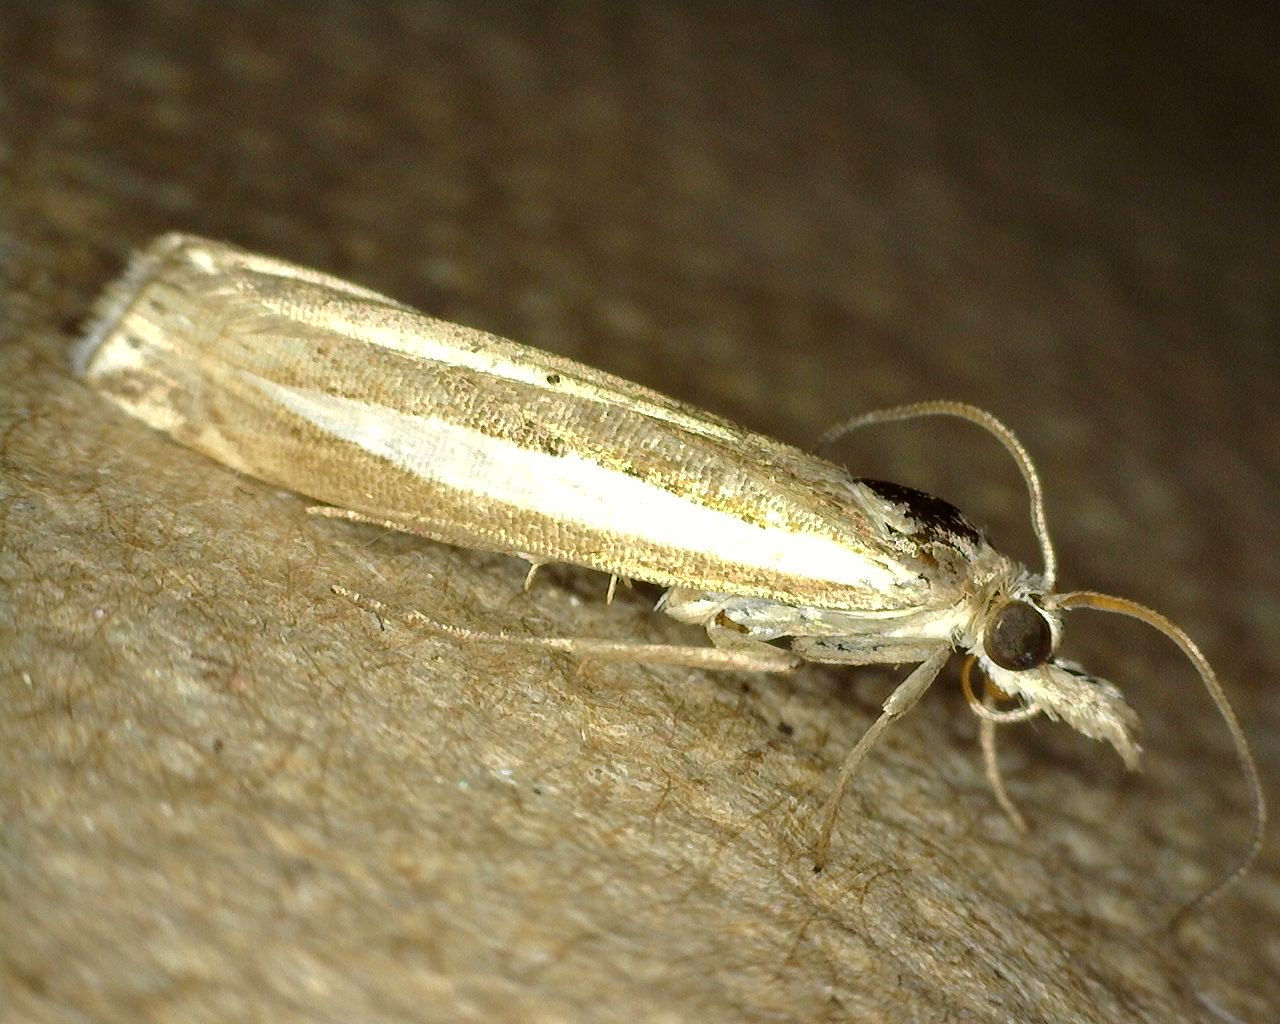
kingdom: Animalia
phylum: Arthropoda
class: Insecta
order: Lepidoptera
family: Crambidae
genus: Crambus
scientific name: Crambus praefectellus
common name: Common grass-veneer
